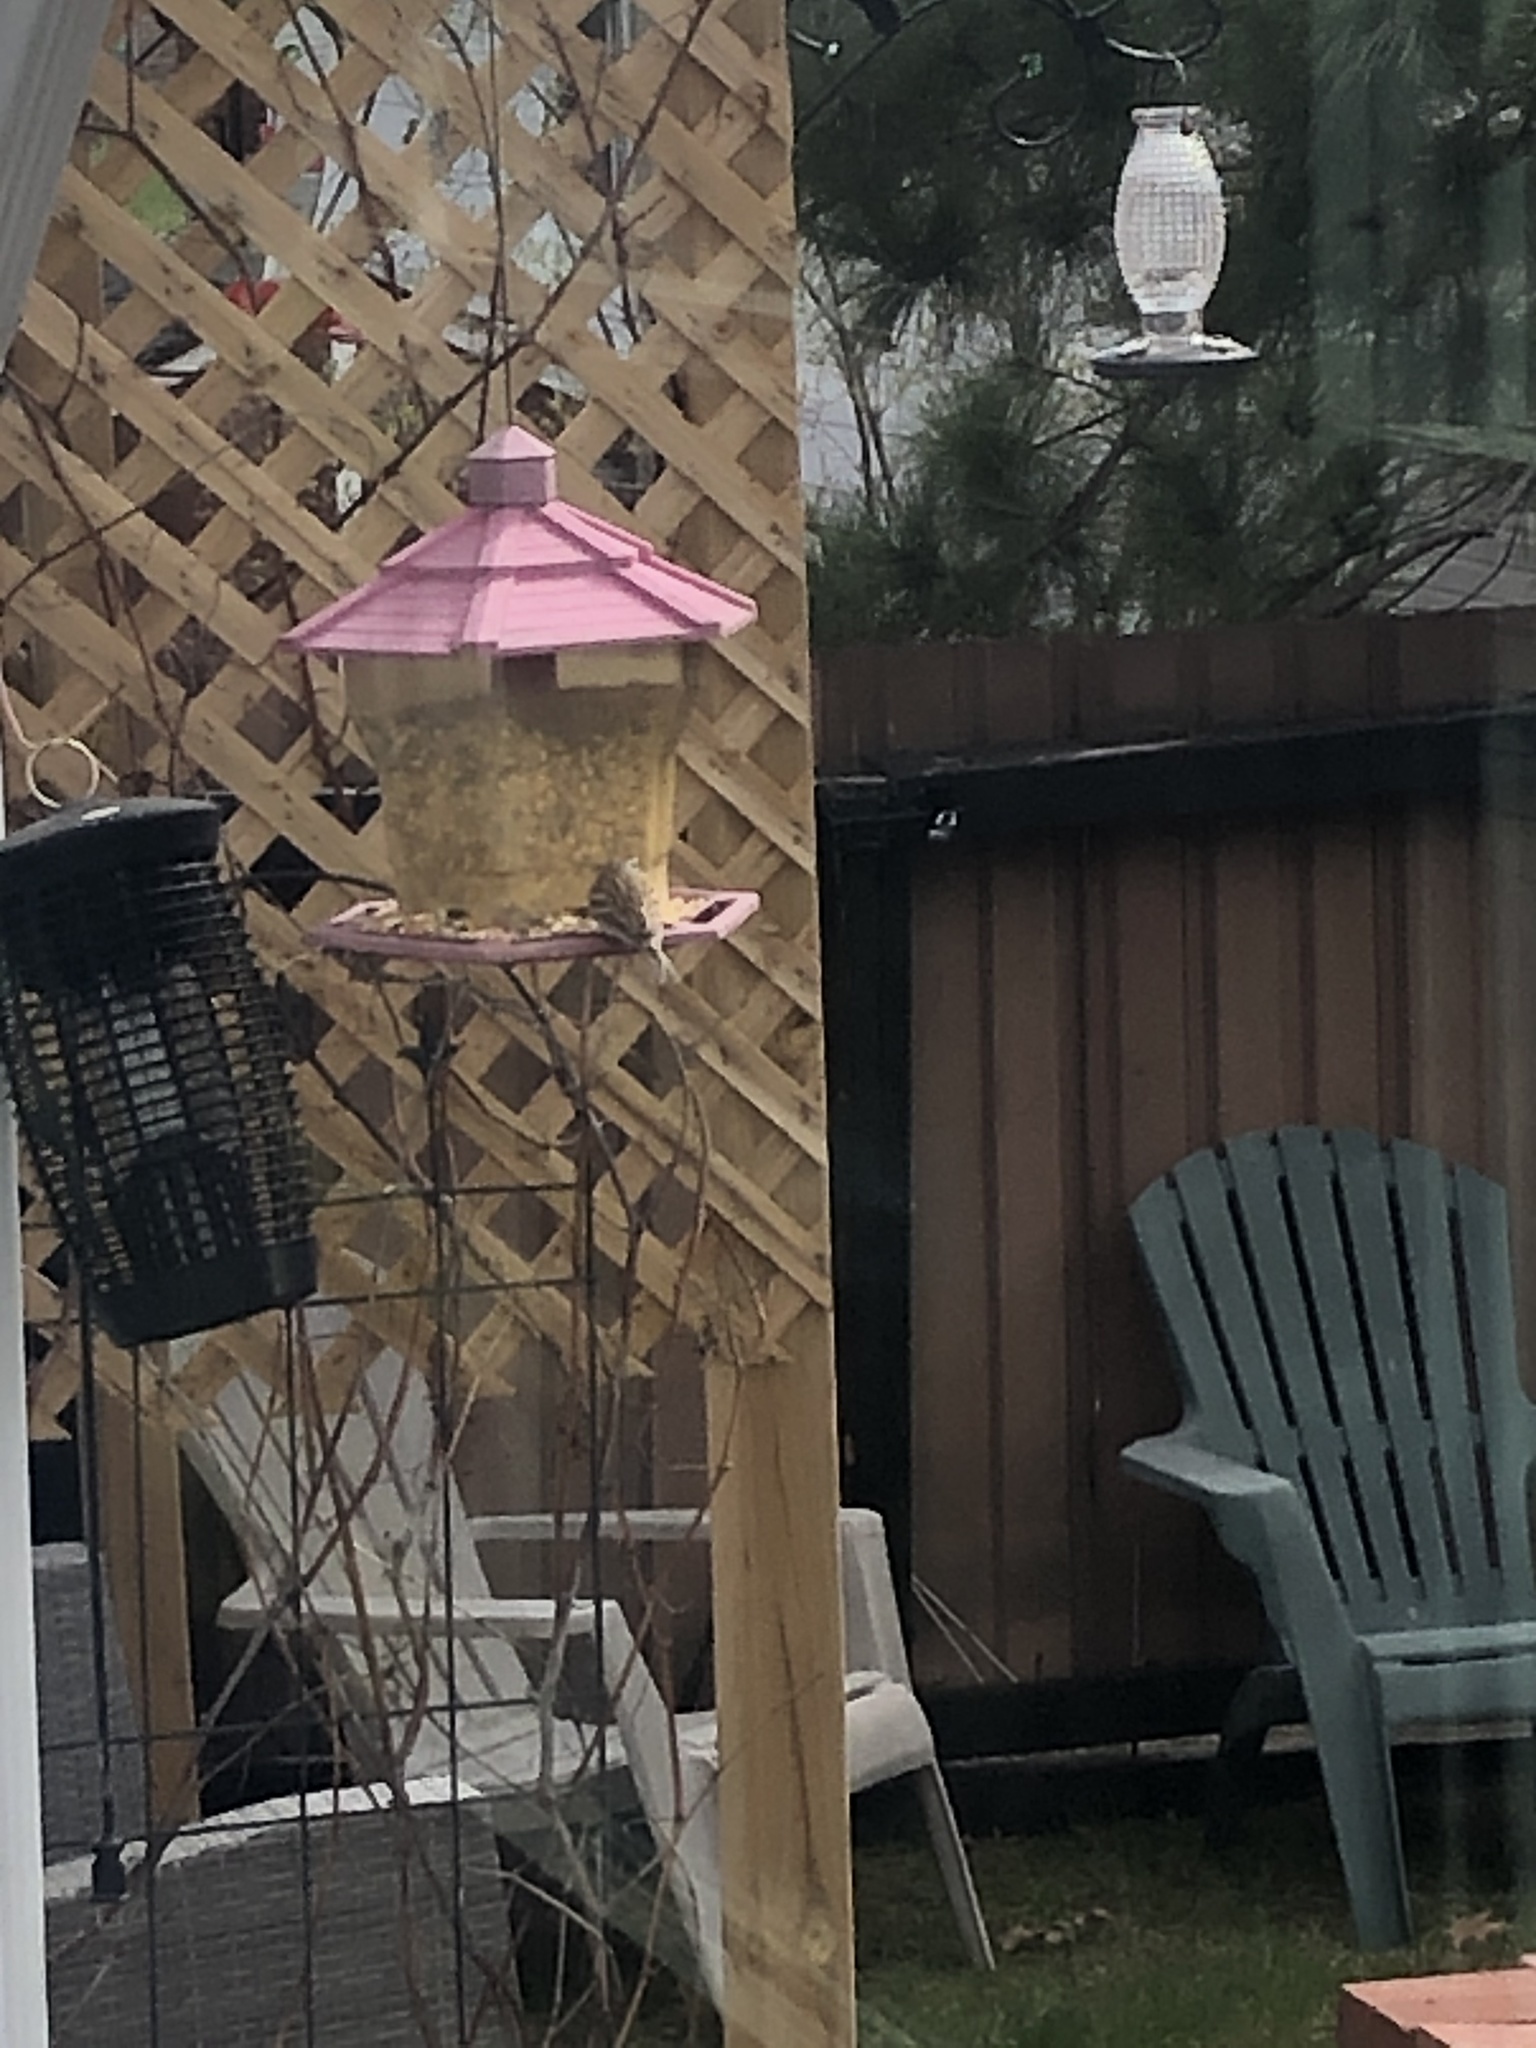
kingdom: Animalia
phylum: Chordata
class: Aves
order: Passeriformes
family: Passerellidae
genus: Spizella
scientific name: Spizella passerina
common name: Chipping sparrow
